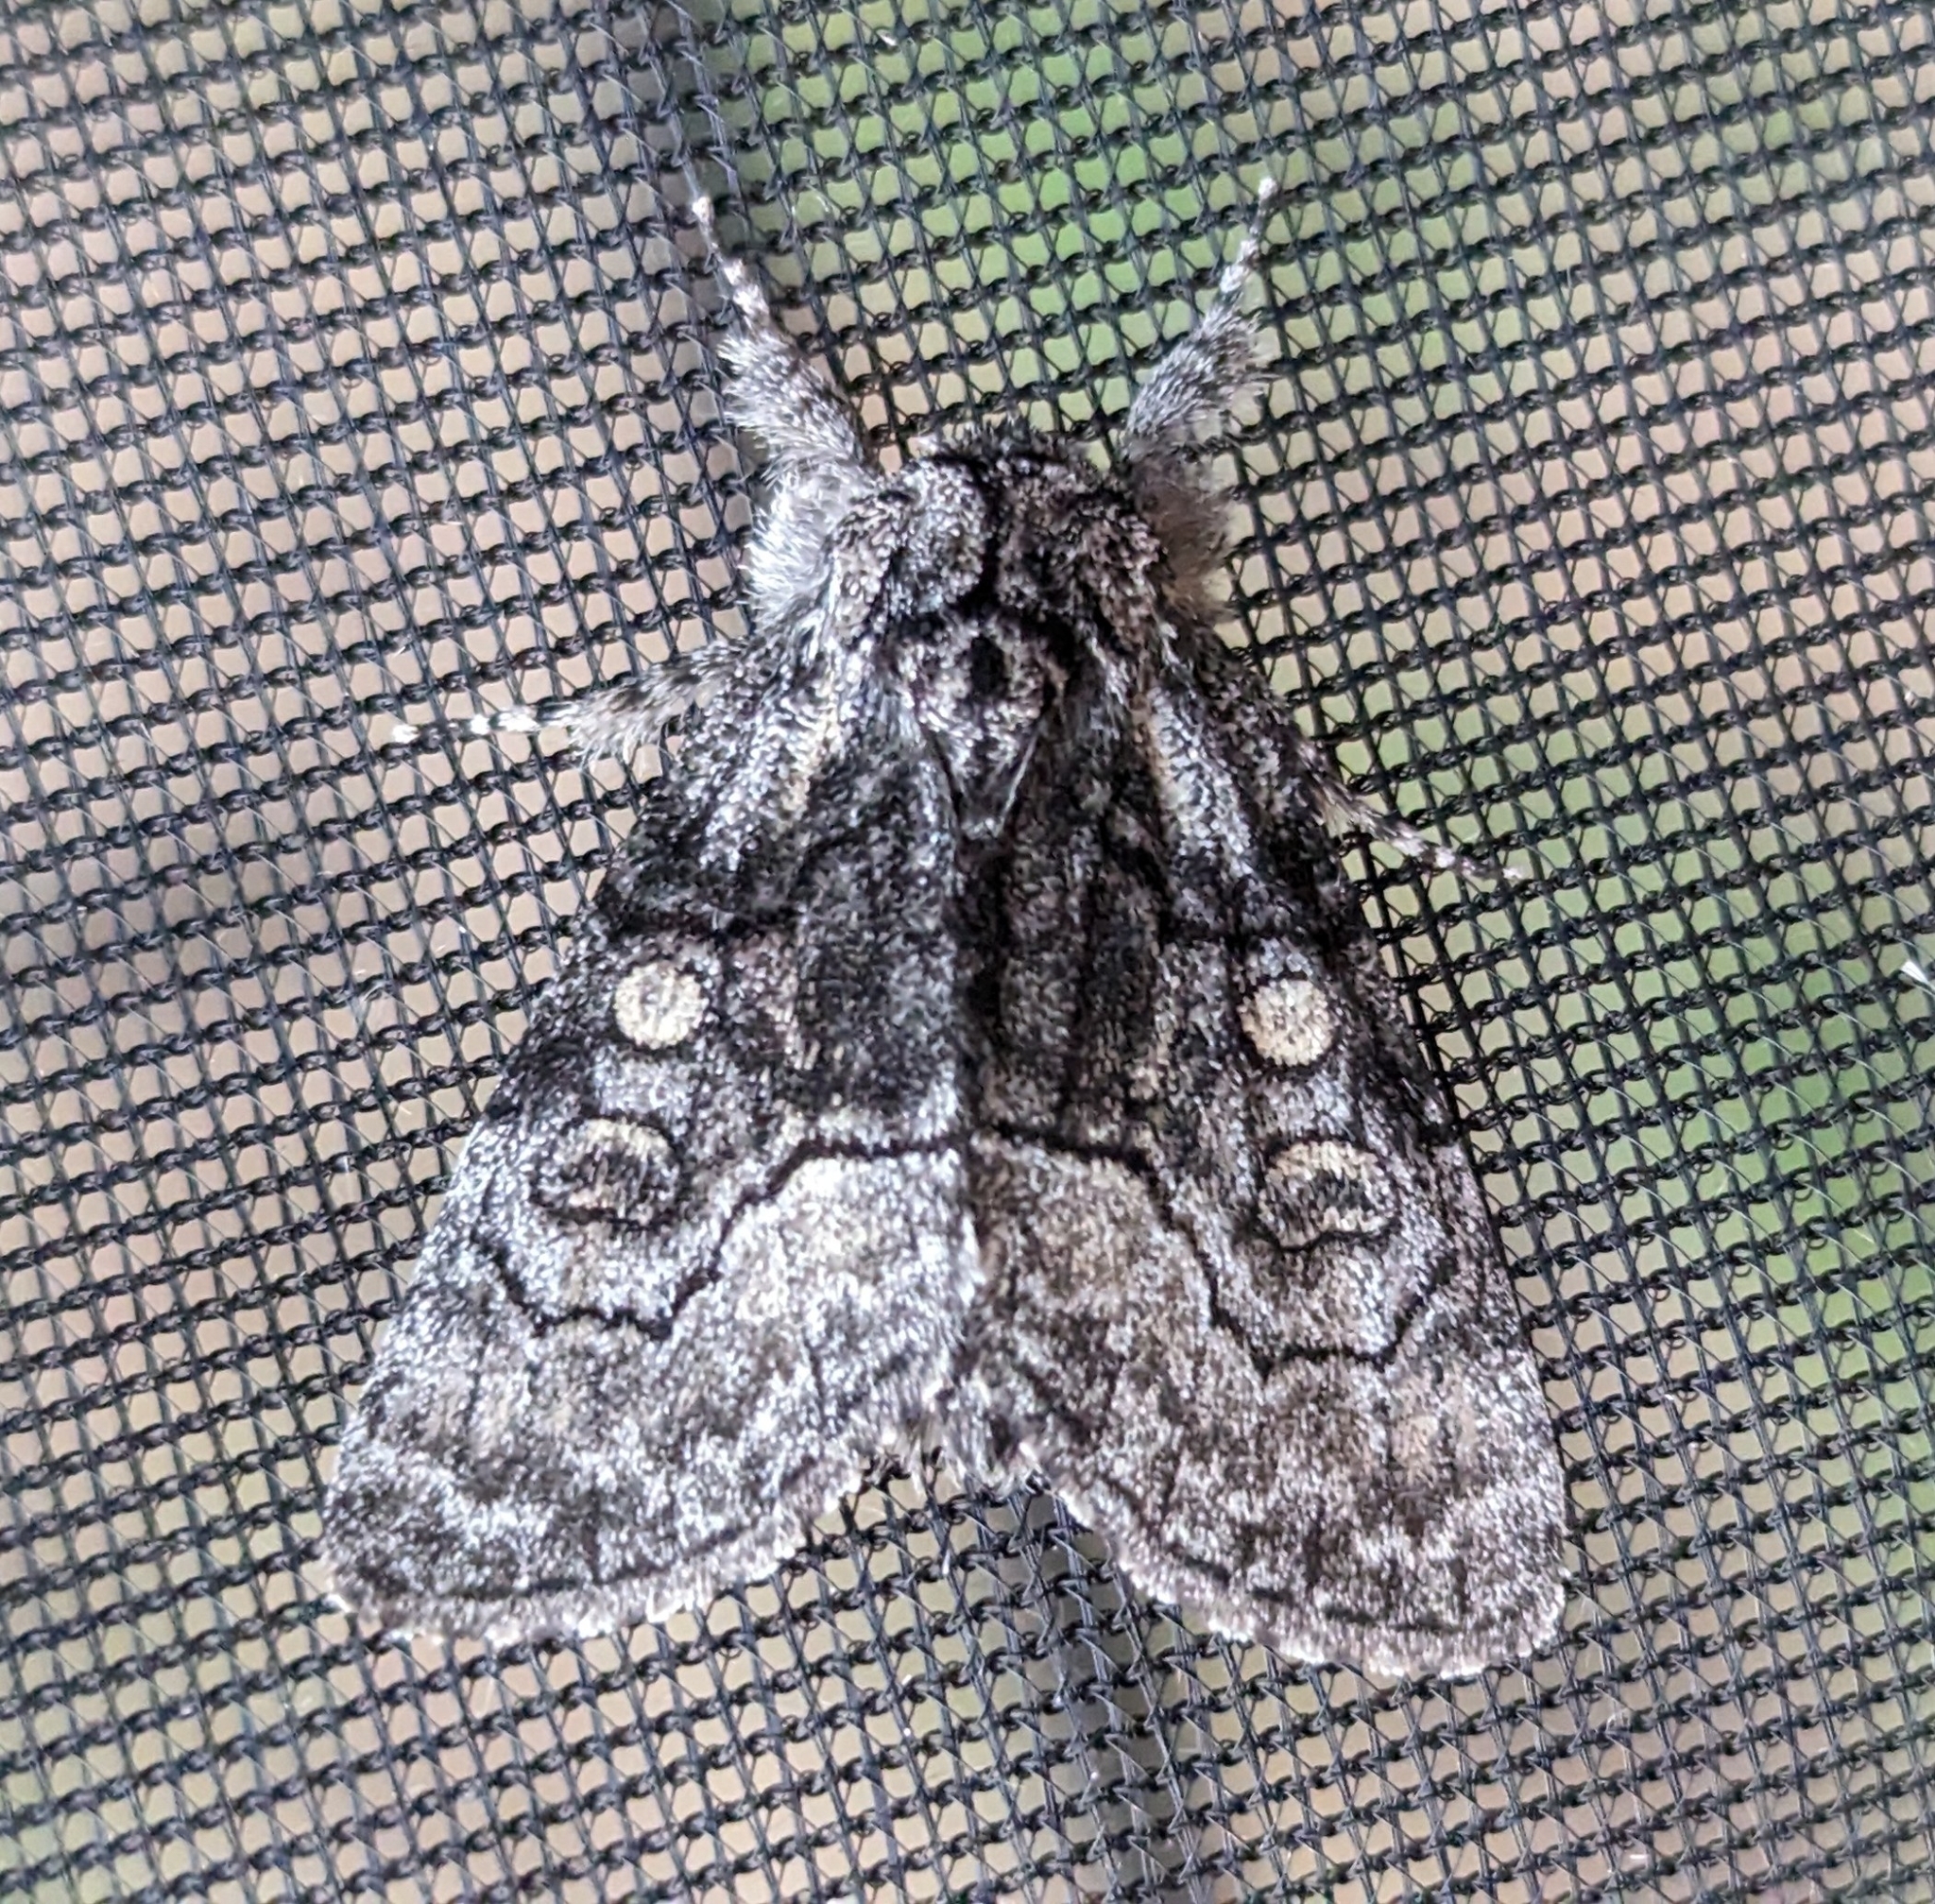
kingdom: Animalia
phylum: Arthropoda
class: Insecta
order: Lepidoptera
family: Noctuidae
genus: Raphia
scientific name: Raphia frater
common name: Brother
